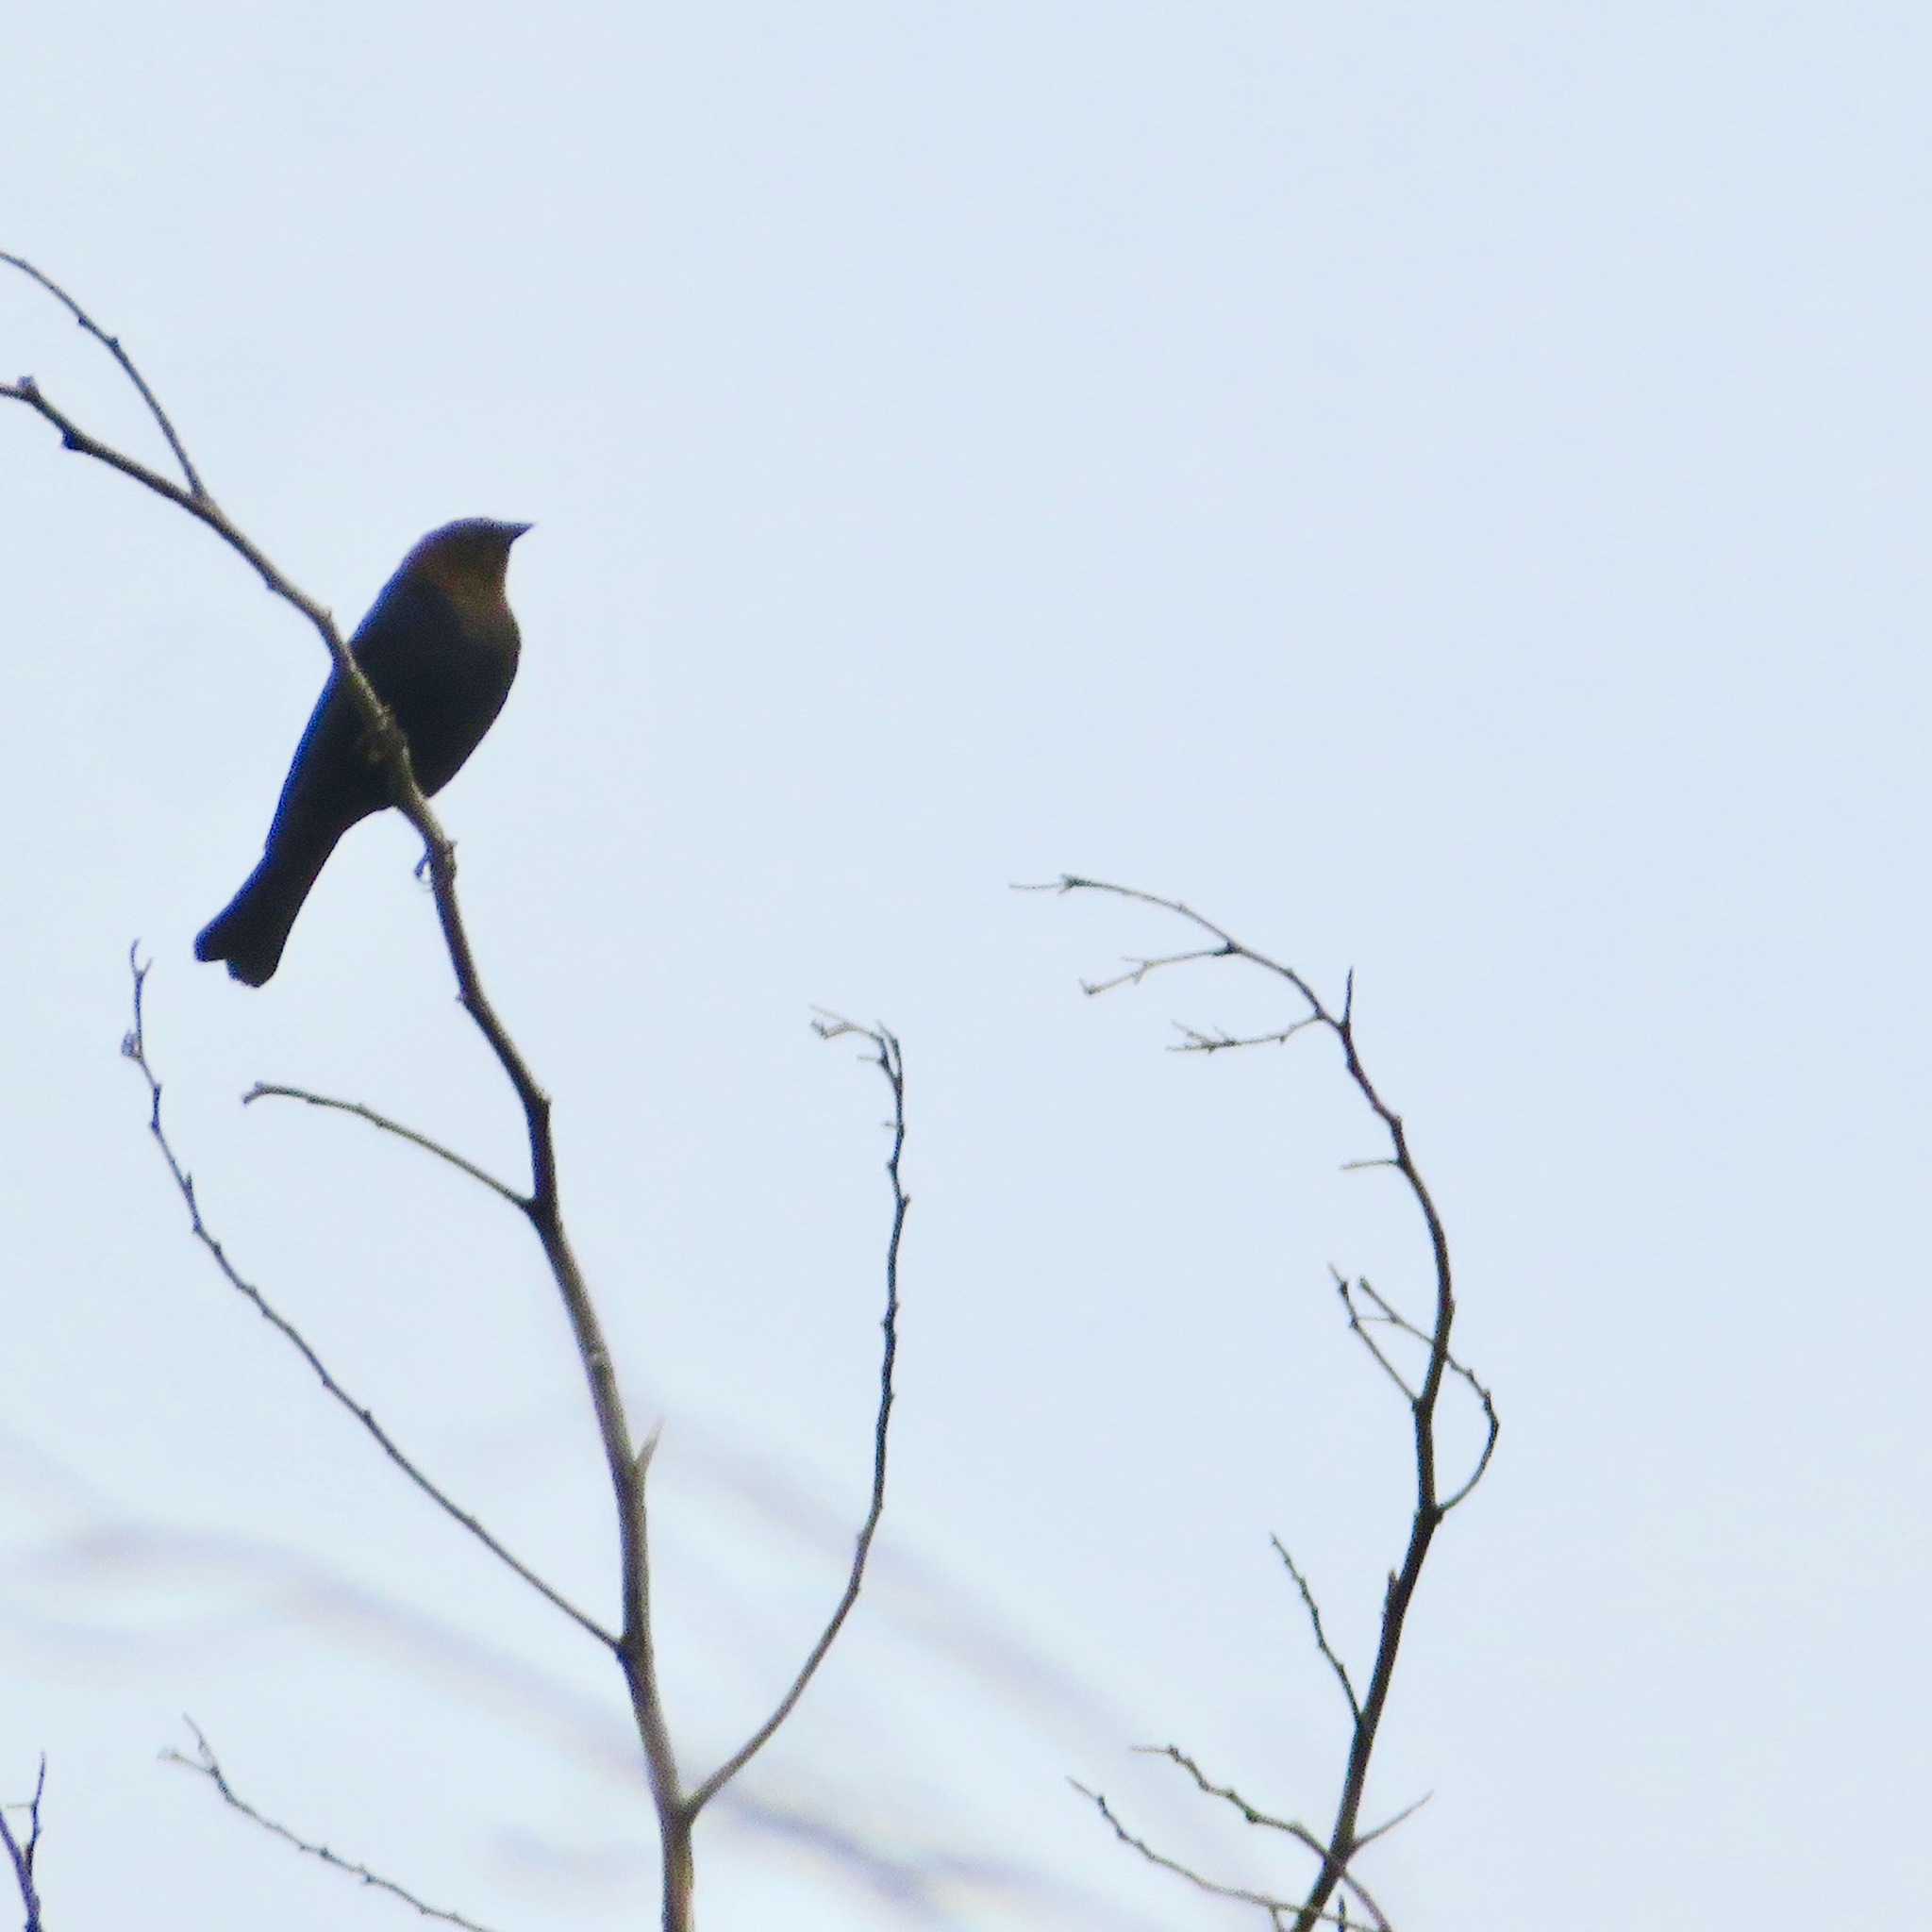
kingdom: Animalia
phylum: Chordata
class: Aves
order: Passeriformes
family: Icteridae
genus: Molothrus
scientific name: Molothrus ater
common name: Brown-headed cowbird
